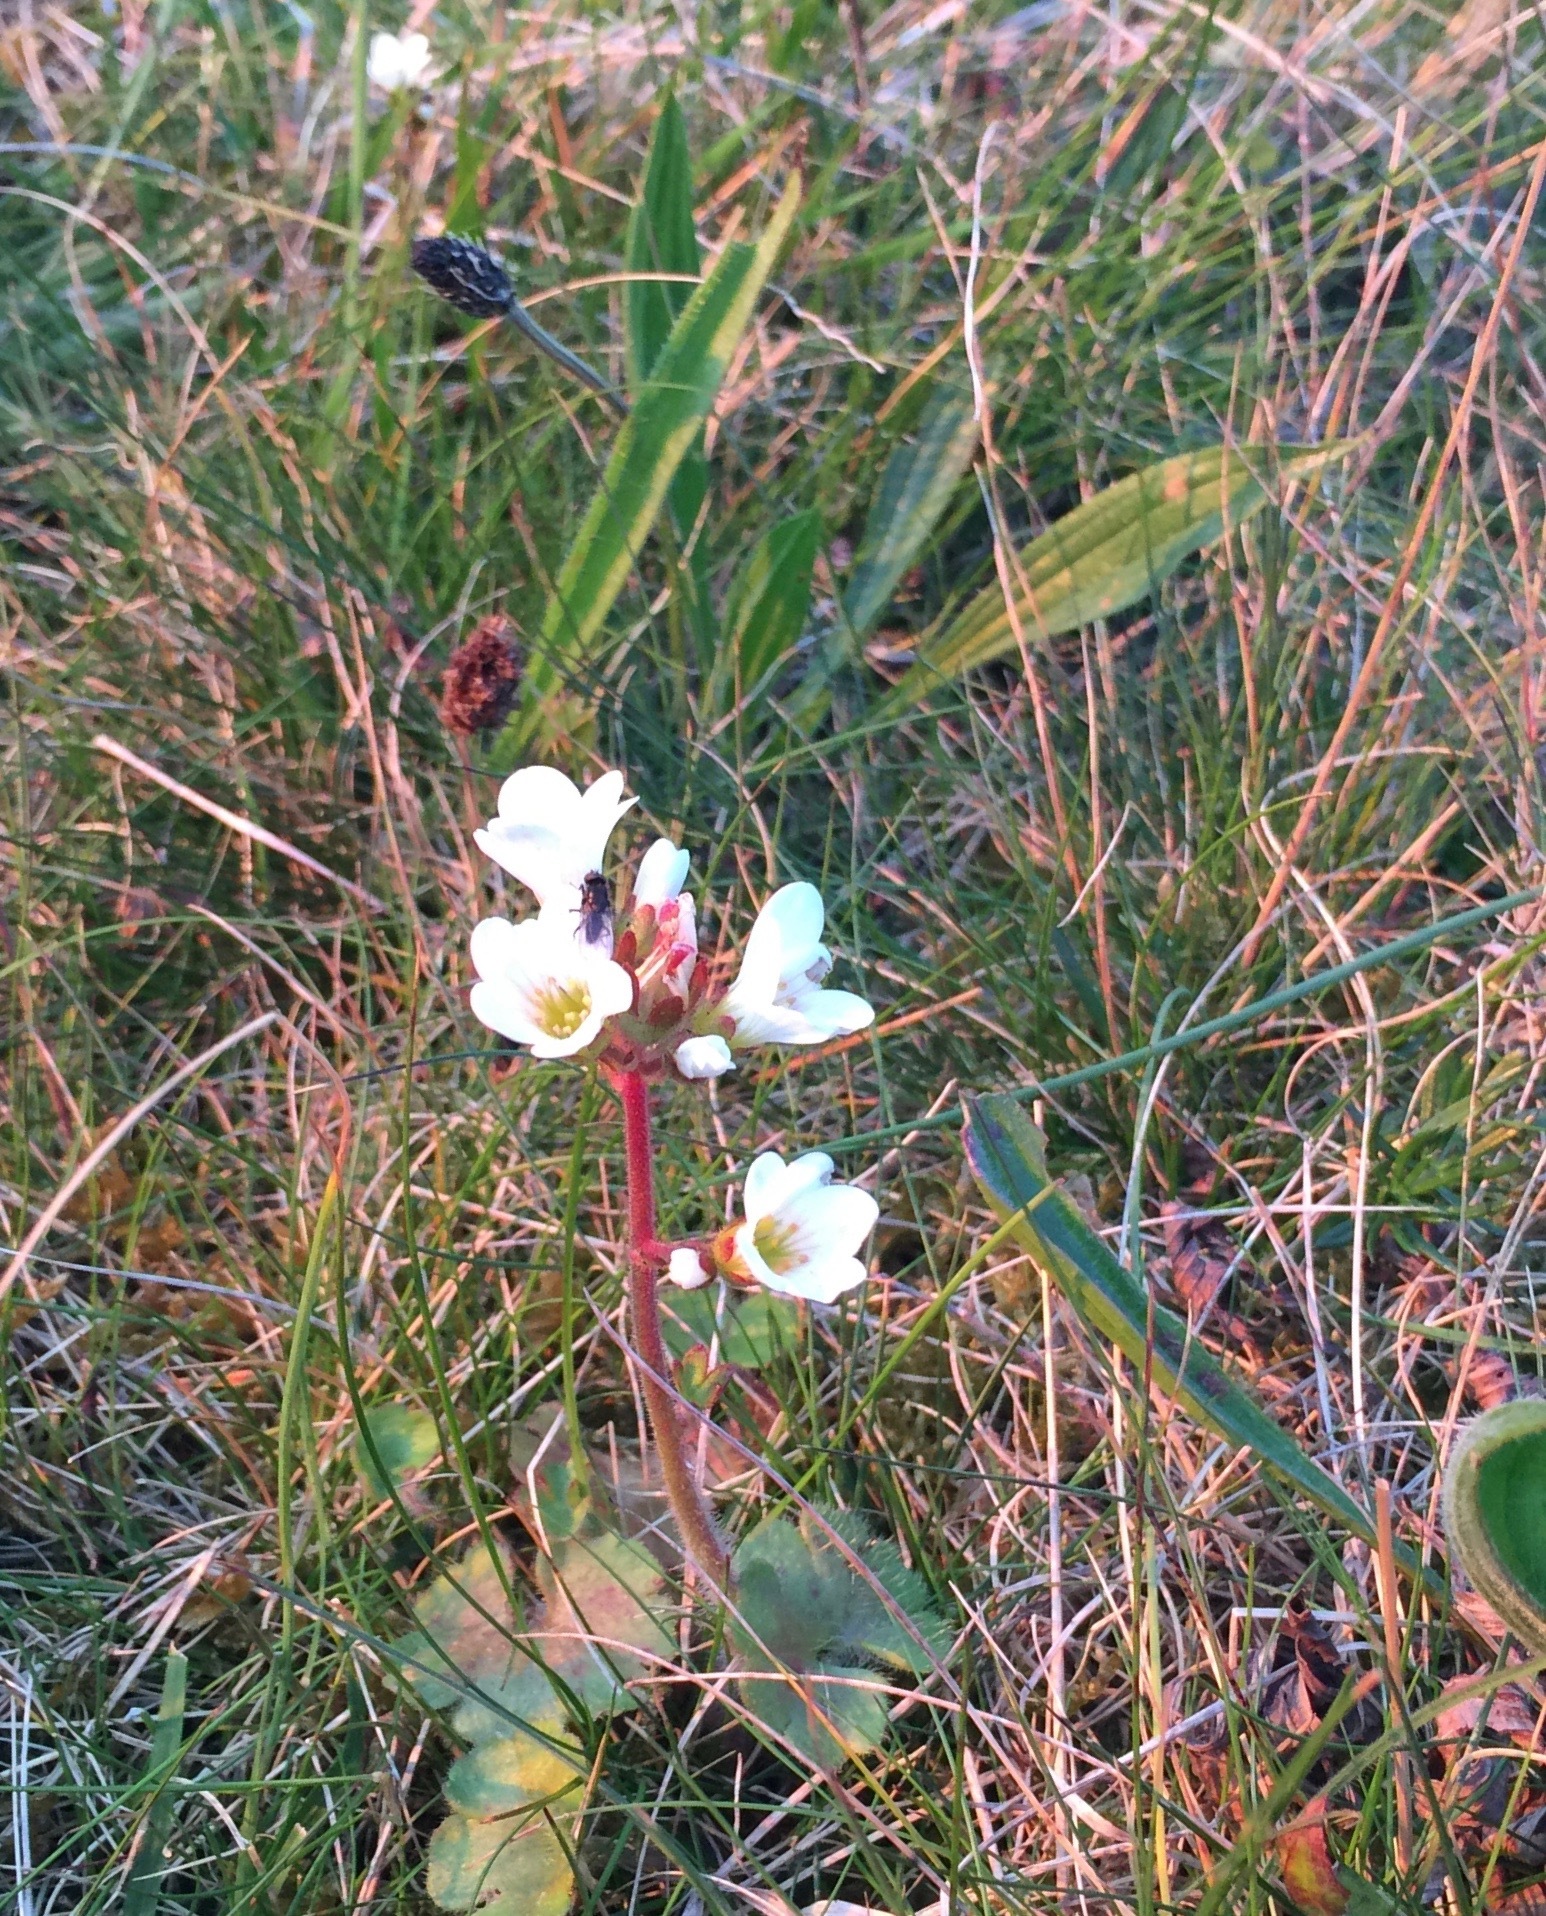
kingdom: Plantae
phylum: Tracheophyta
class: Magnoliopsida
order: Saxifragales
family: Saxifragaceae
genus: Saxifraga
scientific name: Saxifraga granulata
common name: Meadow saxifrage
